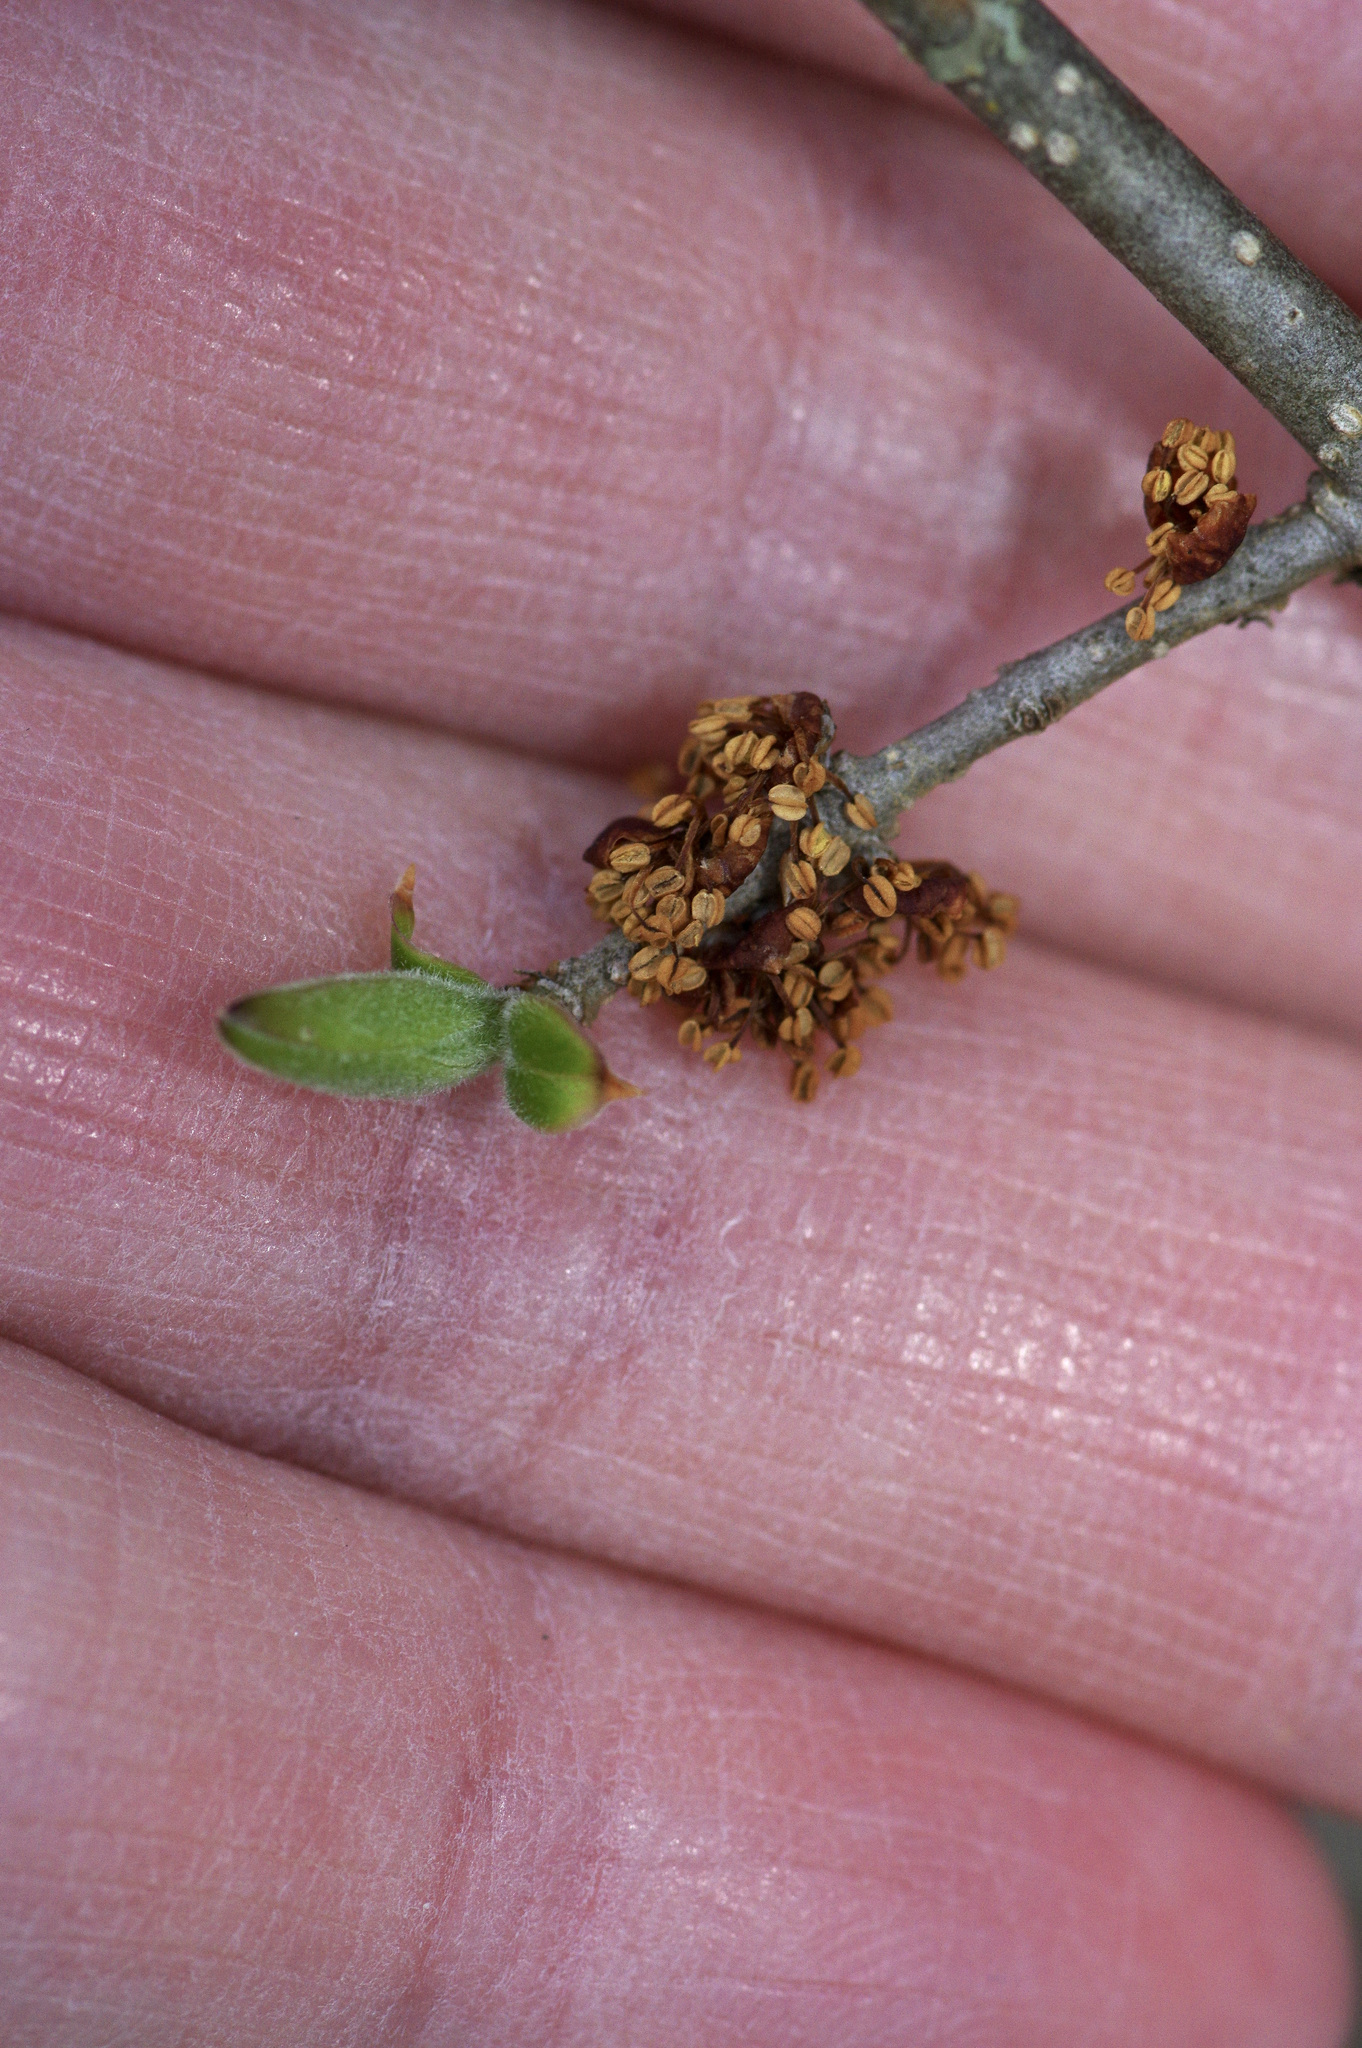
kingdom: Plantae
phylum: Tracheophyta
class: Magnoliopsida
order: Lamiales
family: Oleaceae
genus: Forestiera
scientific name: Forestiera pubescens
